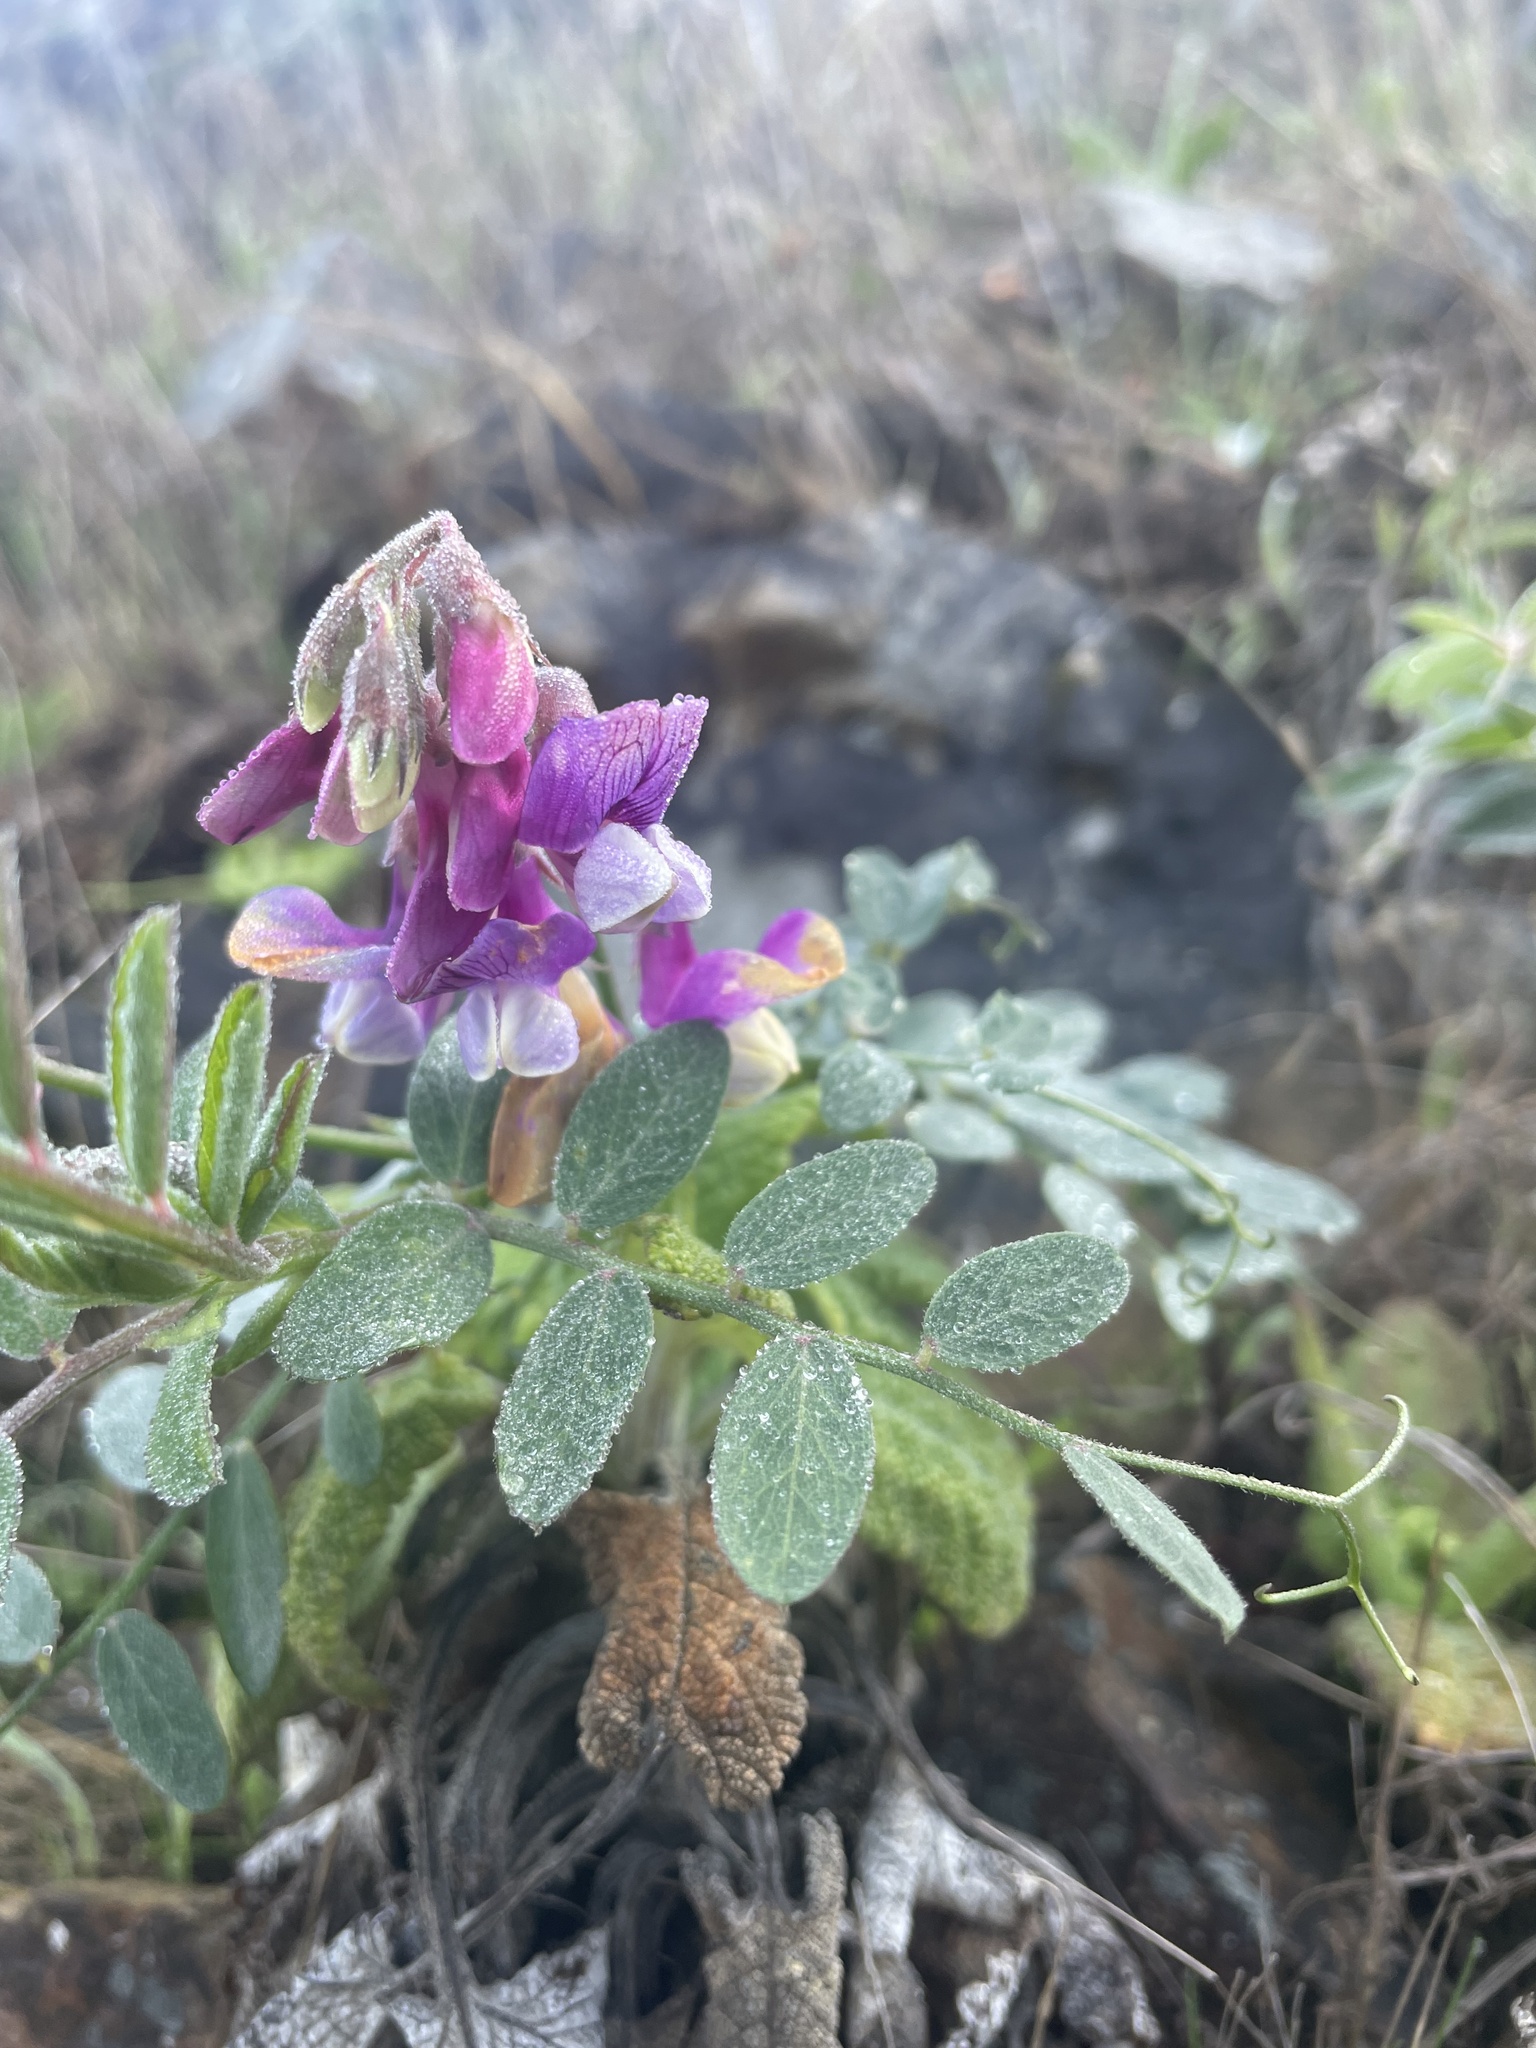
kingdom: Plantae
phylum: Tracheophyta
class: Magnoliopsida
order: Fabales
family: Fabaceae
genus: Lathyrus
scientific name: Lathyrus vestitus
